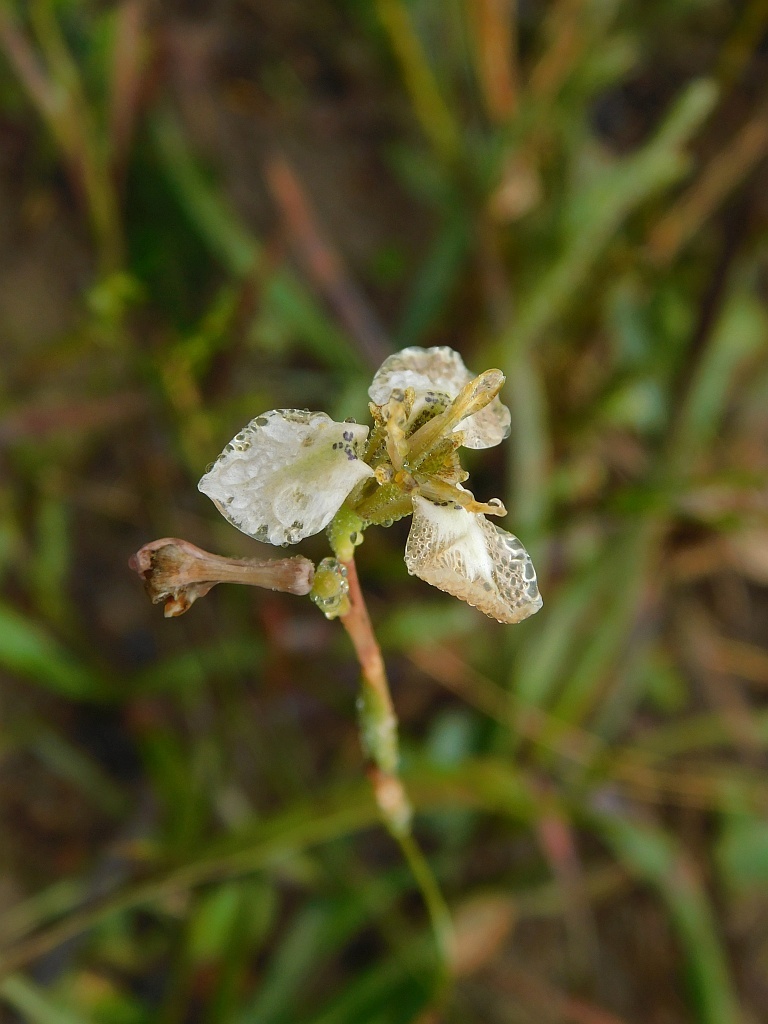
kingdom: Plantae
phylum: Tracheophyta
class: Liliopsida
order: Asparagales
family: Iridaceae
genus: Moraea
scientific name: Moraea unguiculata
